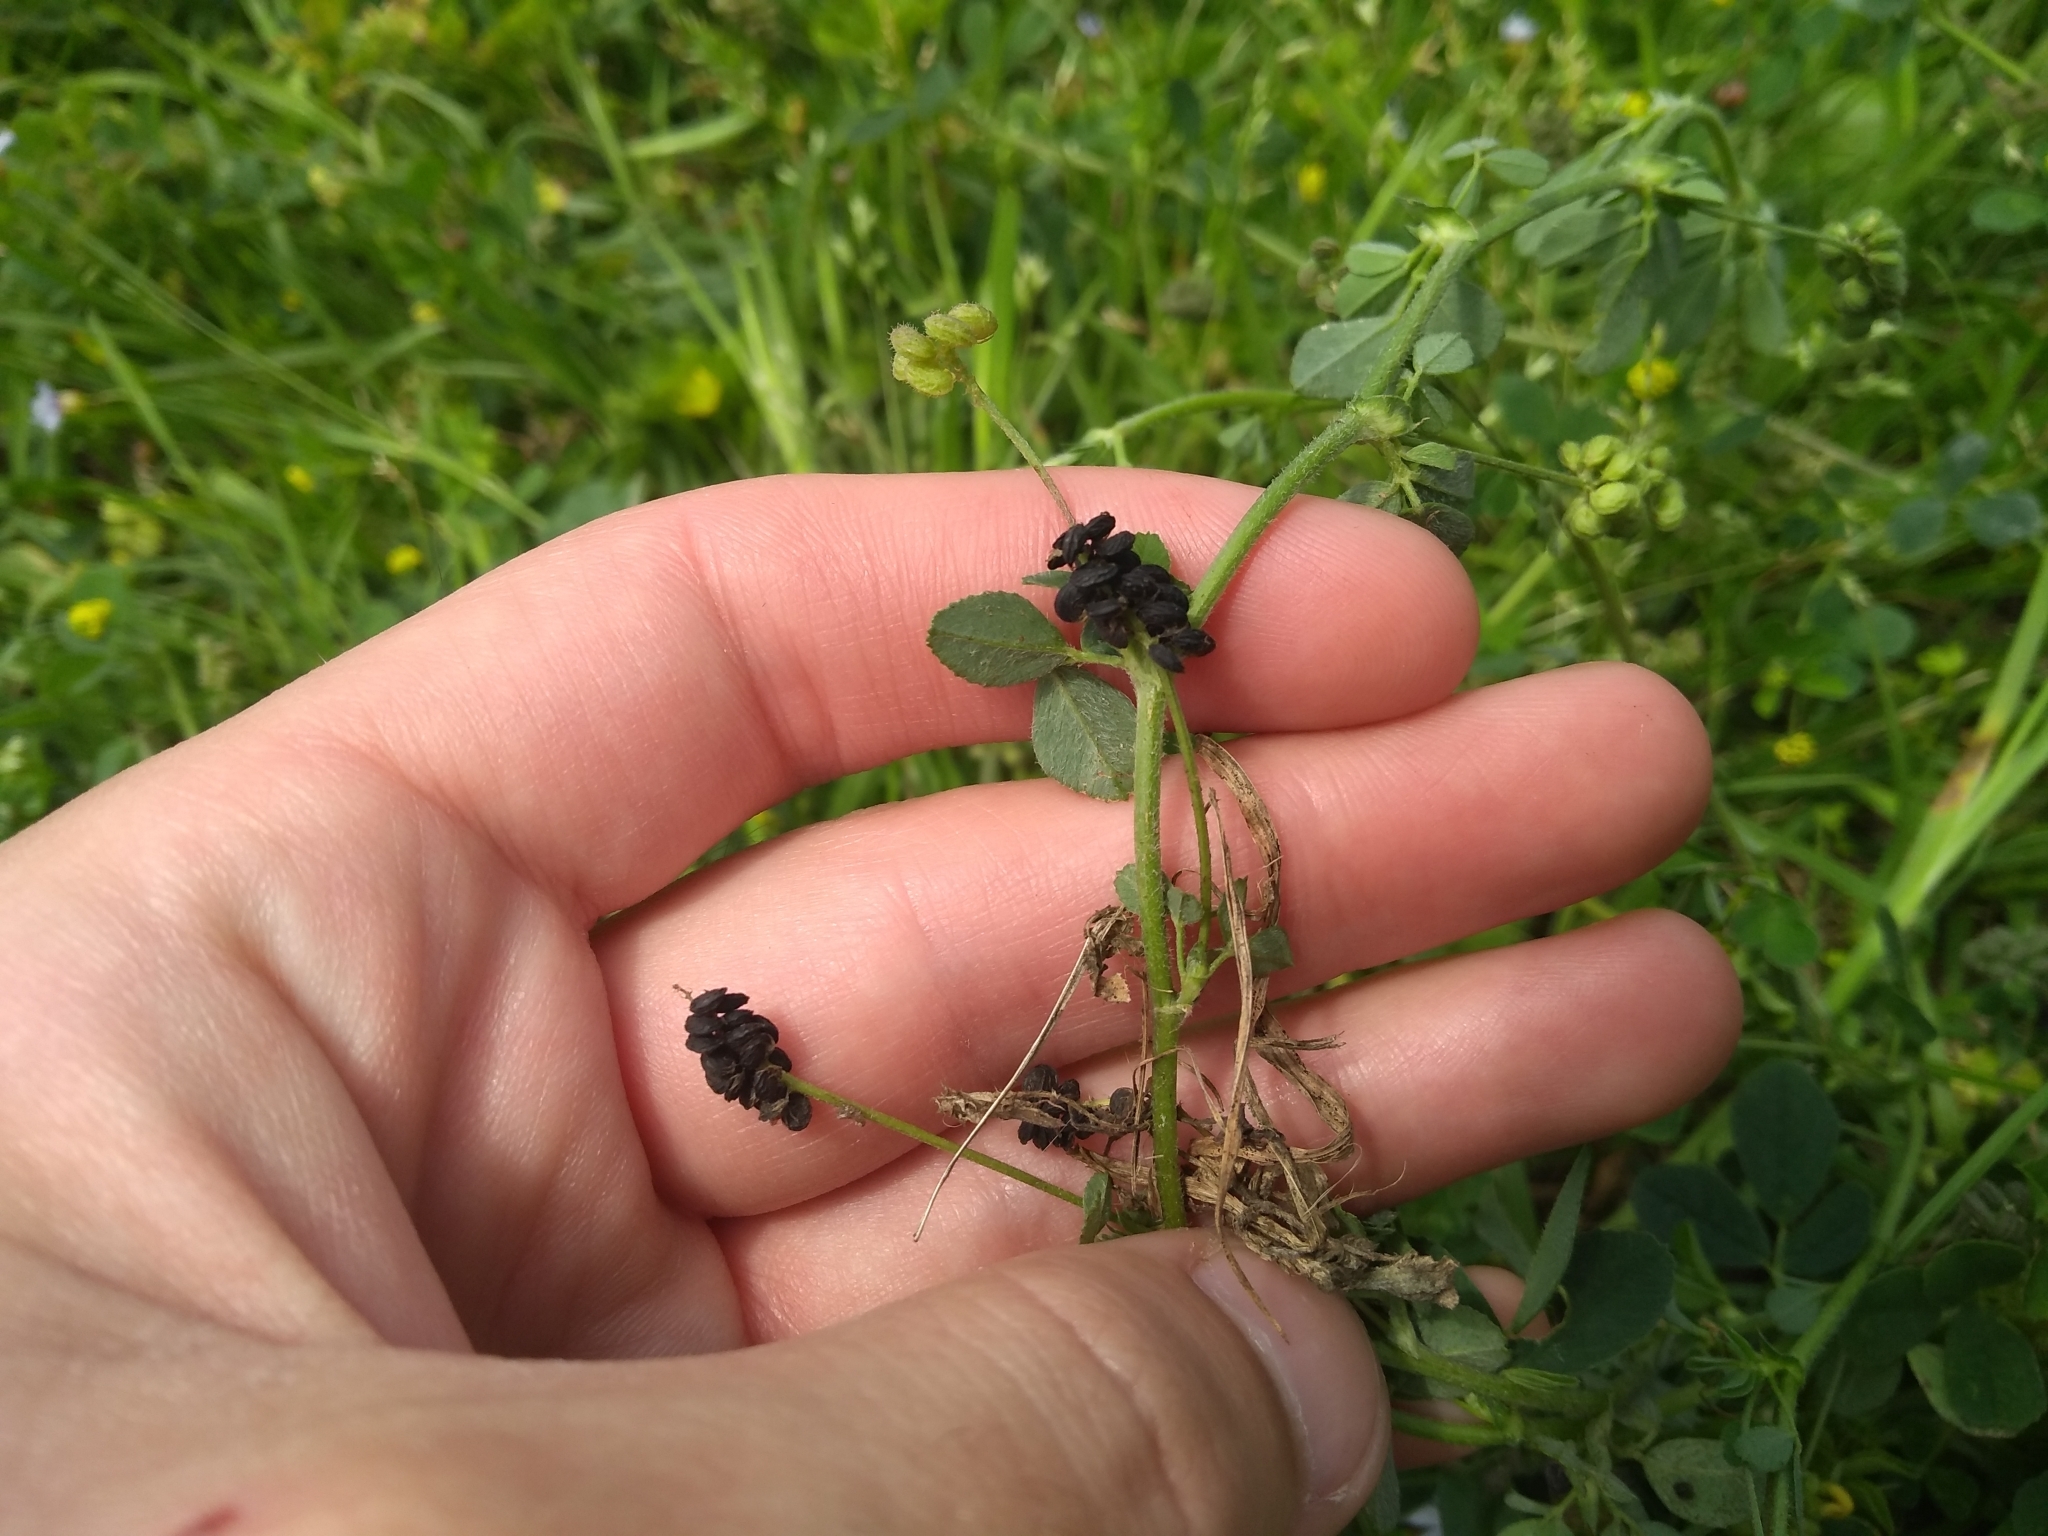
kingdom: Plantae
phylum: Tracheophyta
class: Magnoliopsida
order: Fabales
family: Fabaceae
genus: Medicago
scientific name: Medicago lupulina
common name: Black medick
